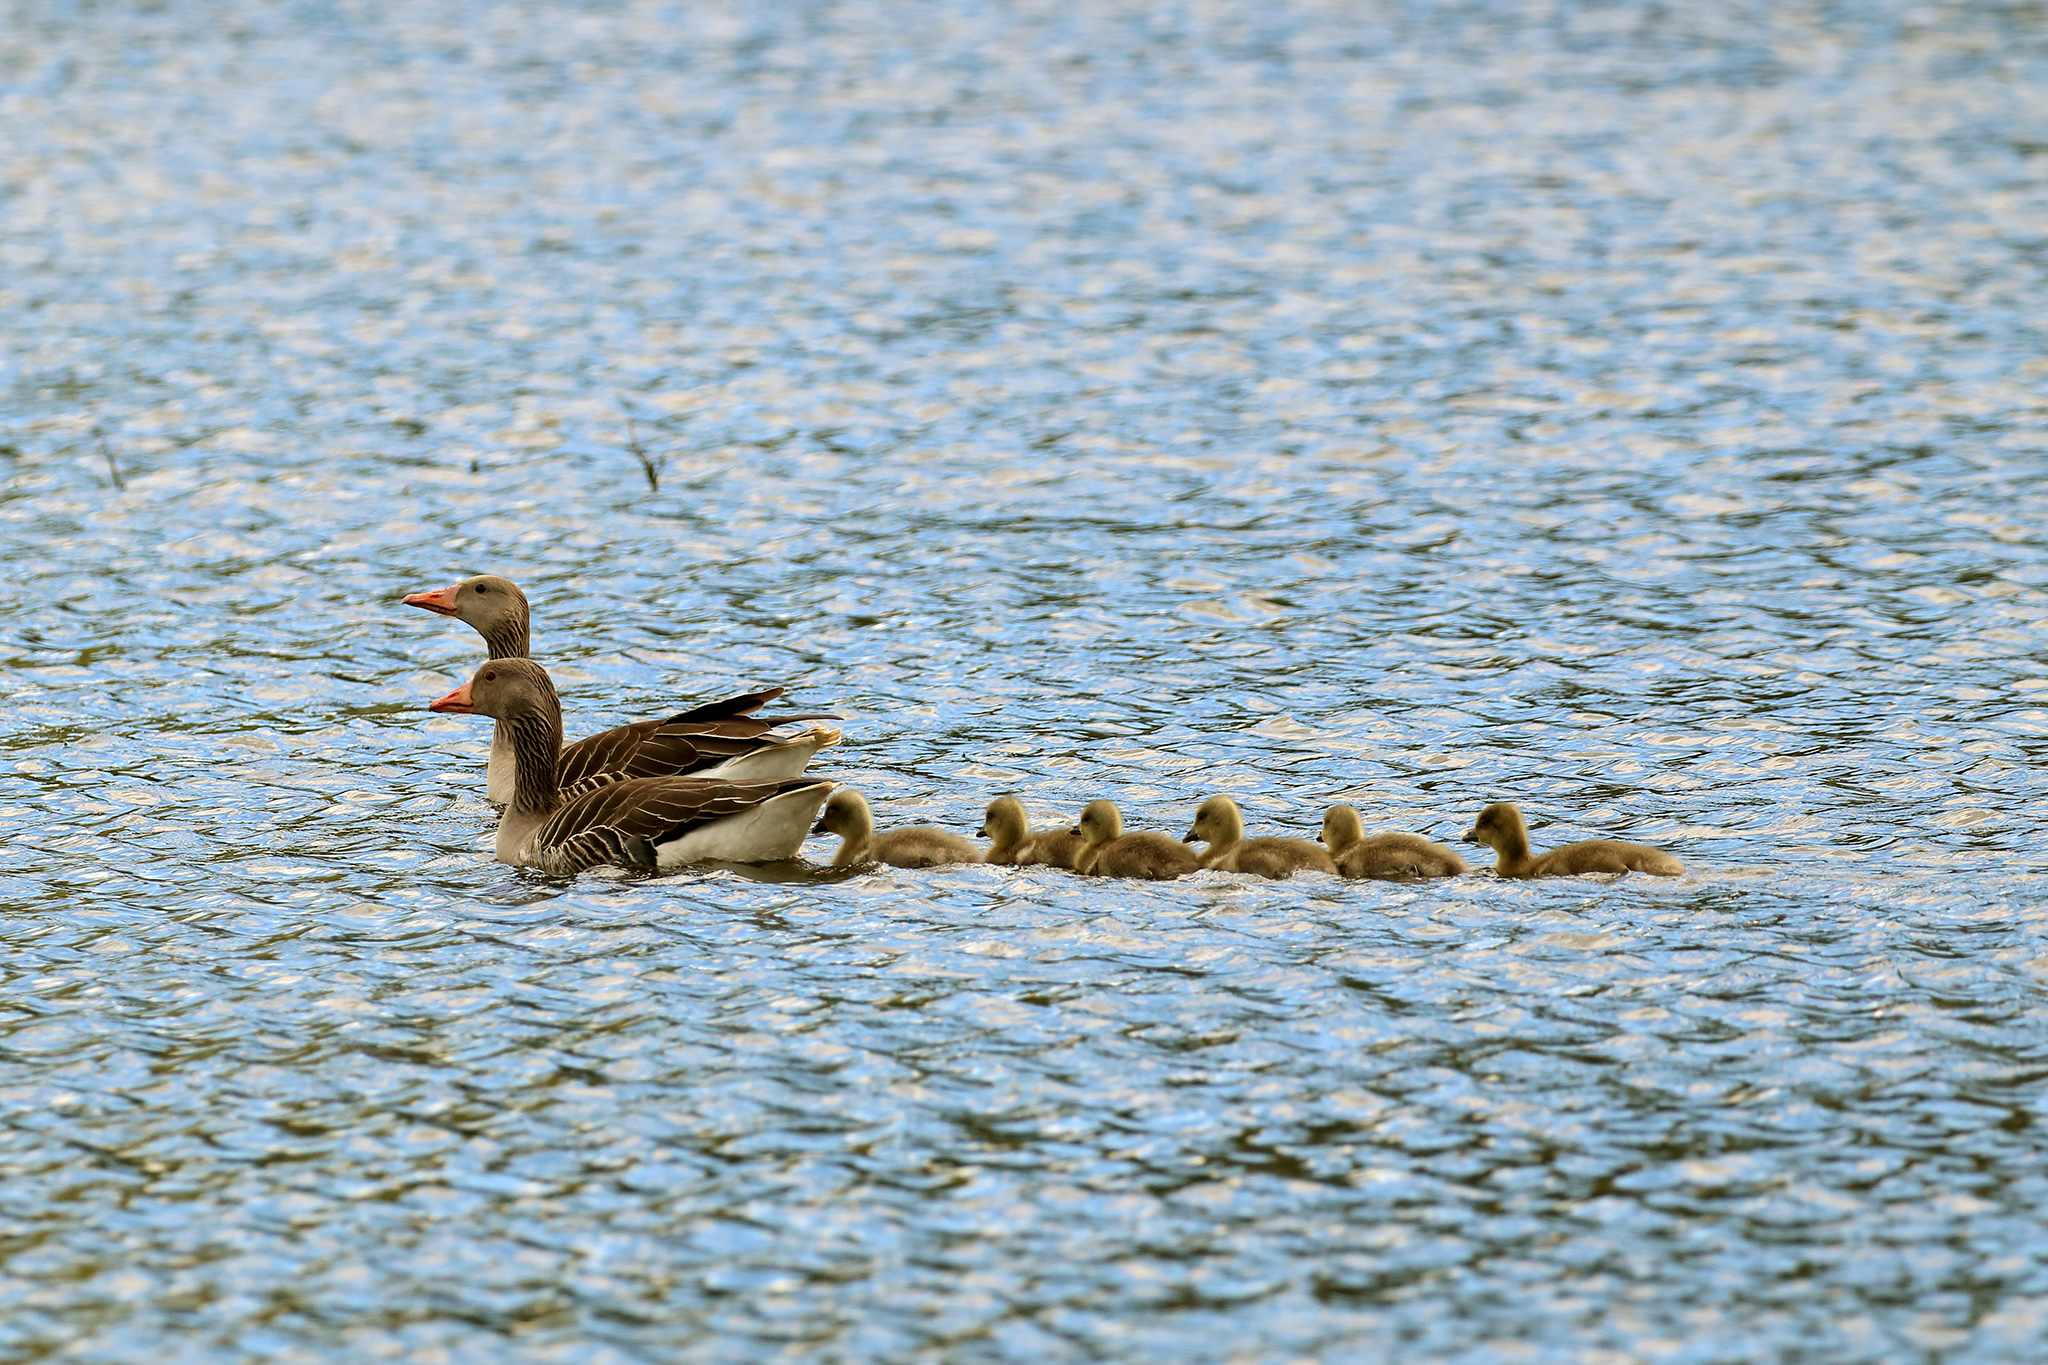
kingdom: Animalia
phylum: Chordata
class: Aves
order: Anseriformes
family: Anatidae
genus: Anser
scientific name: Anser anser
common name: Greylag goose
